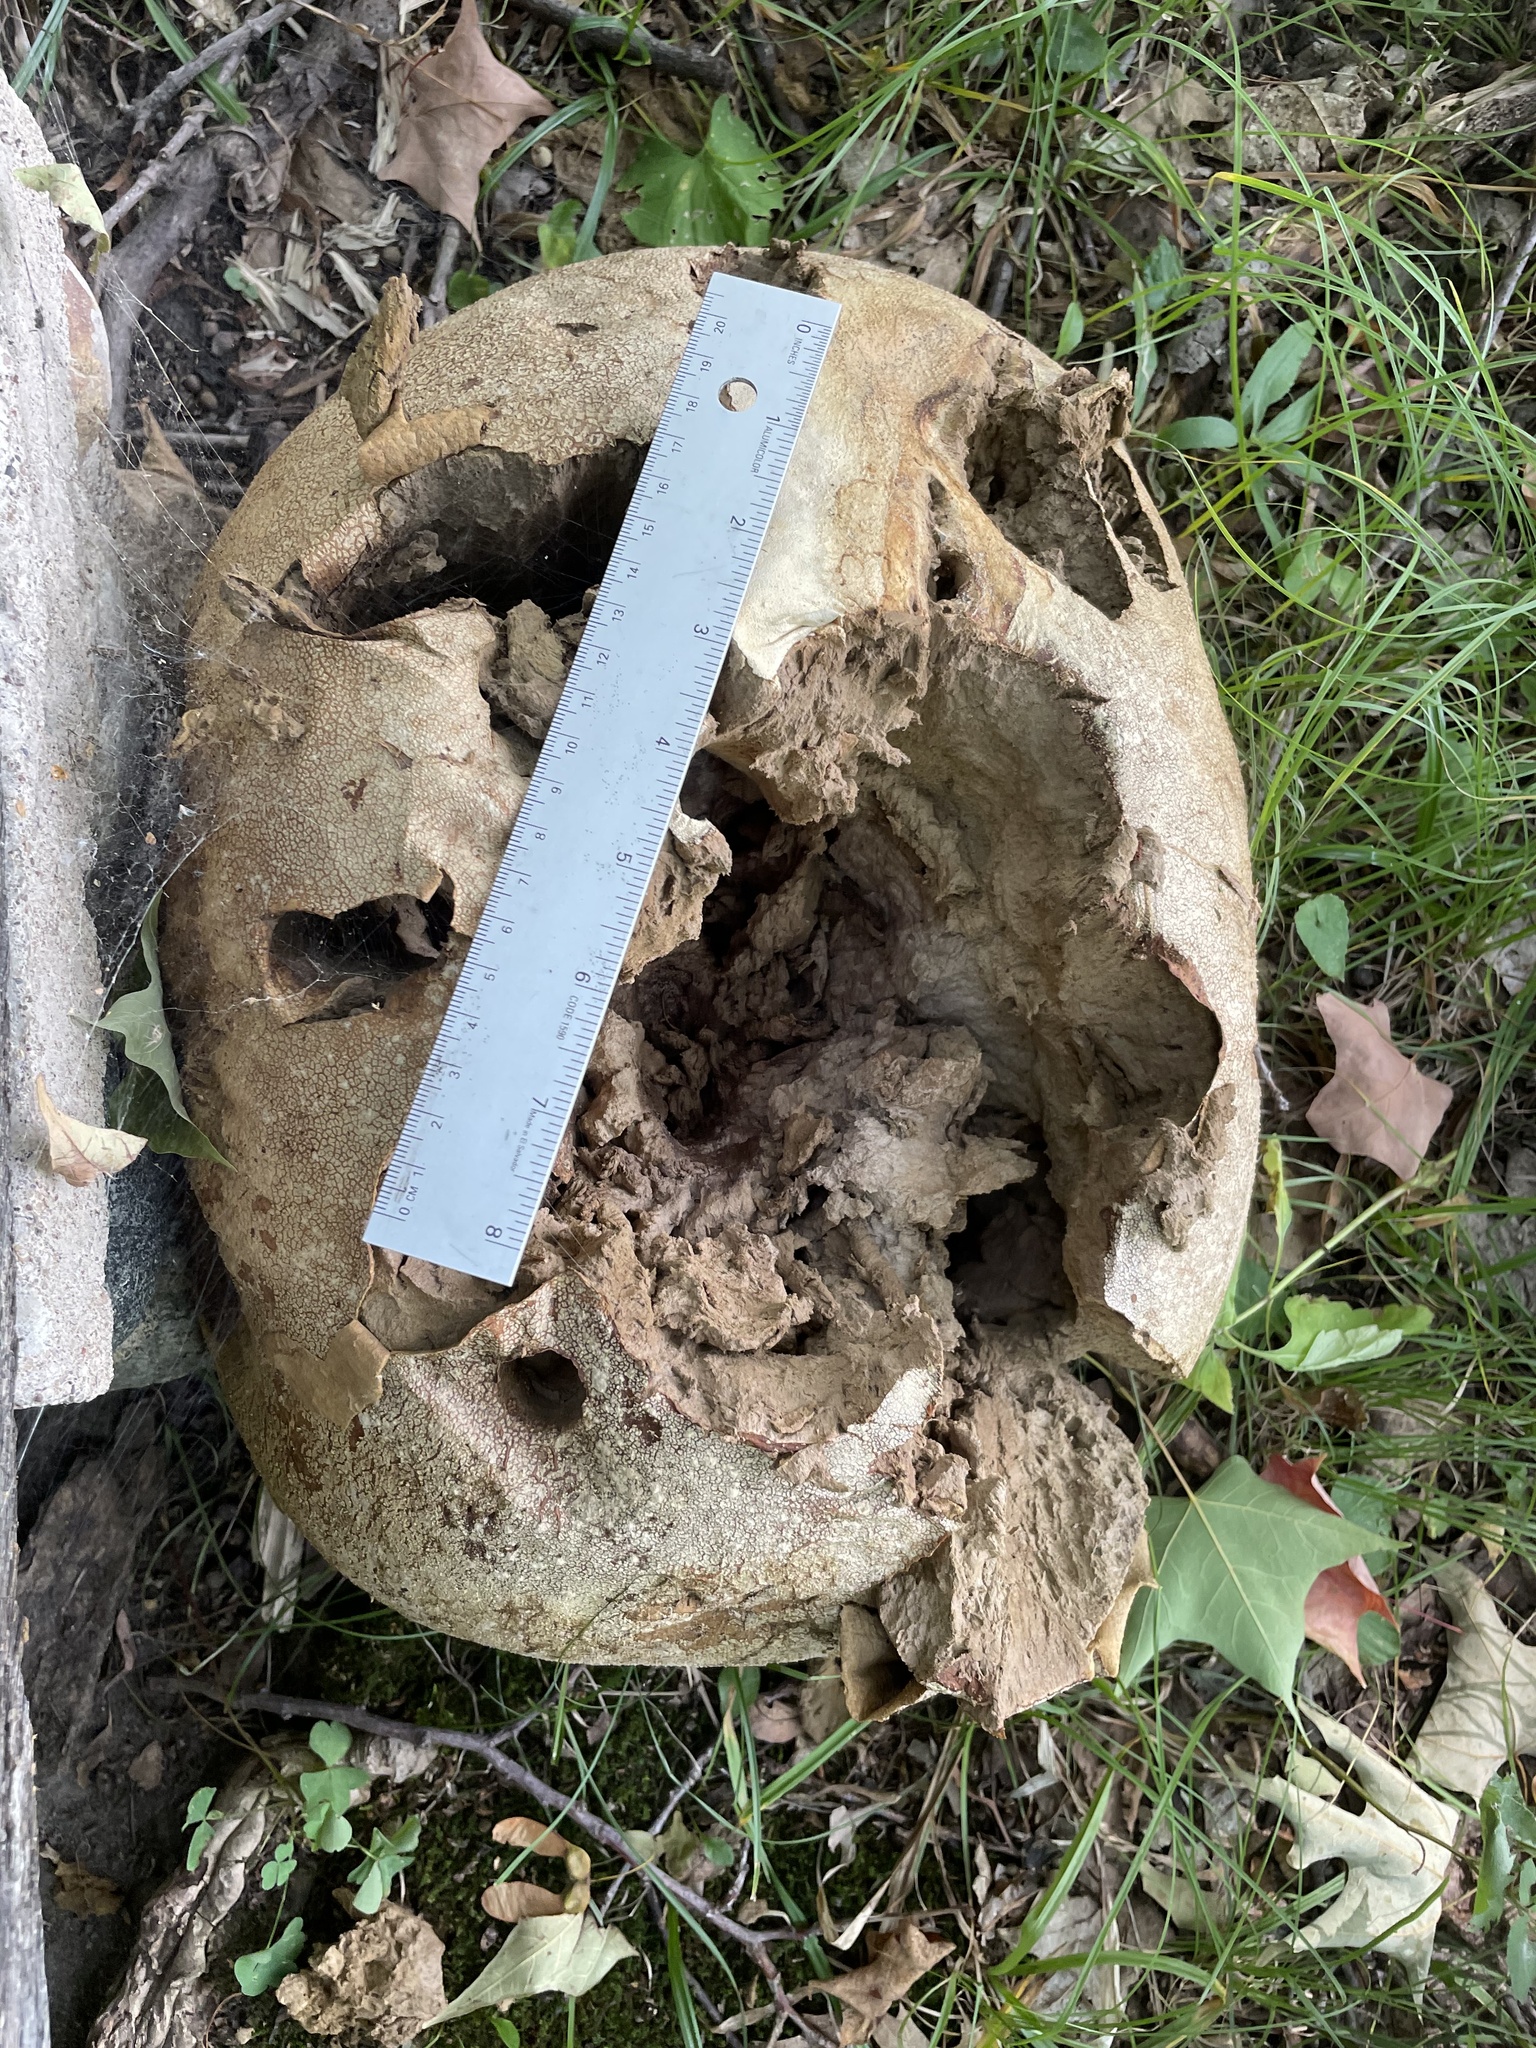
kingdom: Fungi
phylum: Basidiomycota
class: Agaricomycetes
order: Agaricales
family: Lycoperdaceae
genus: Calvatia
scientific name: Calvatia gigantea
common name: Giant puffball
